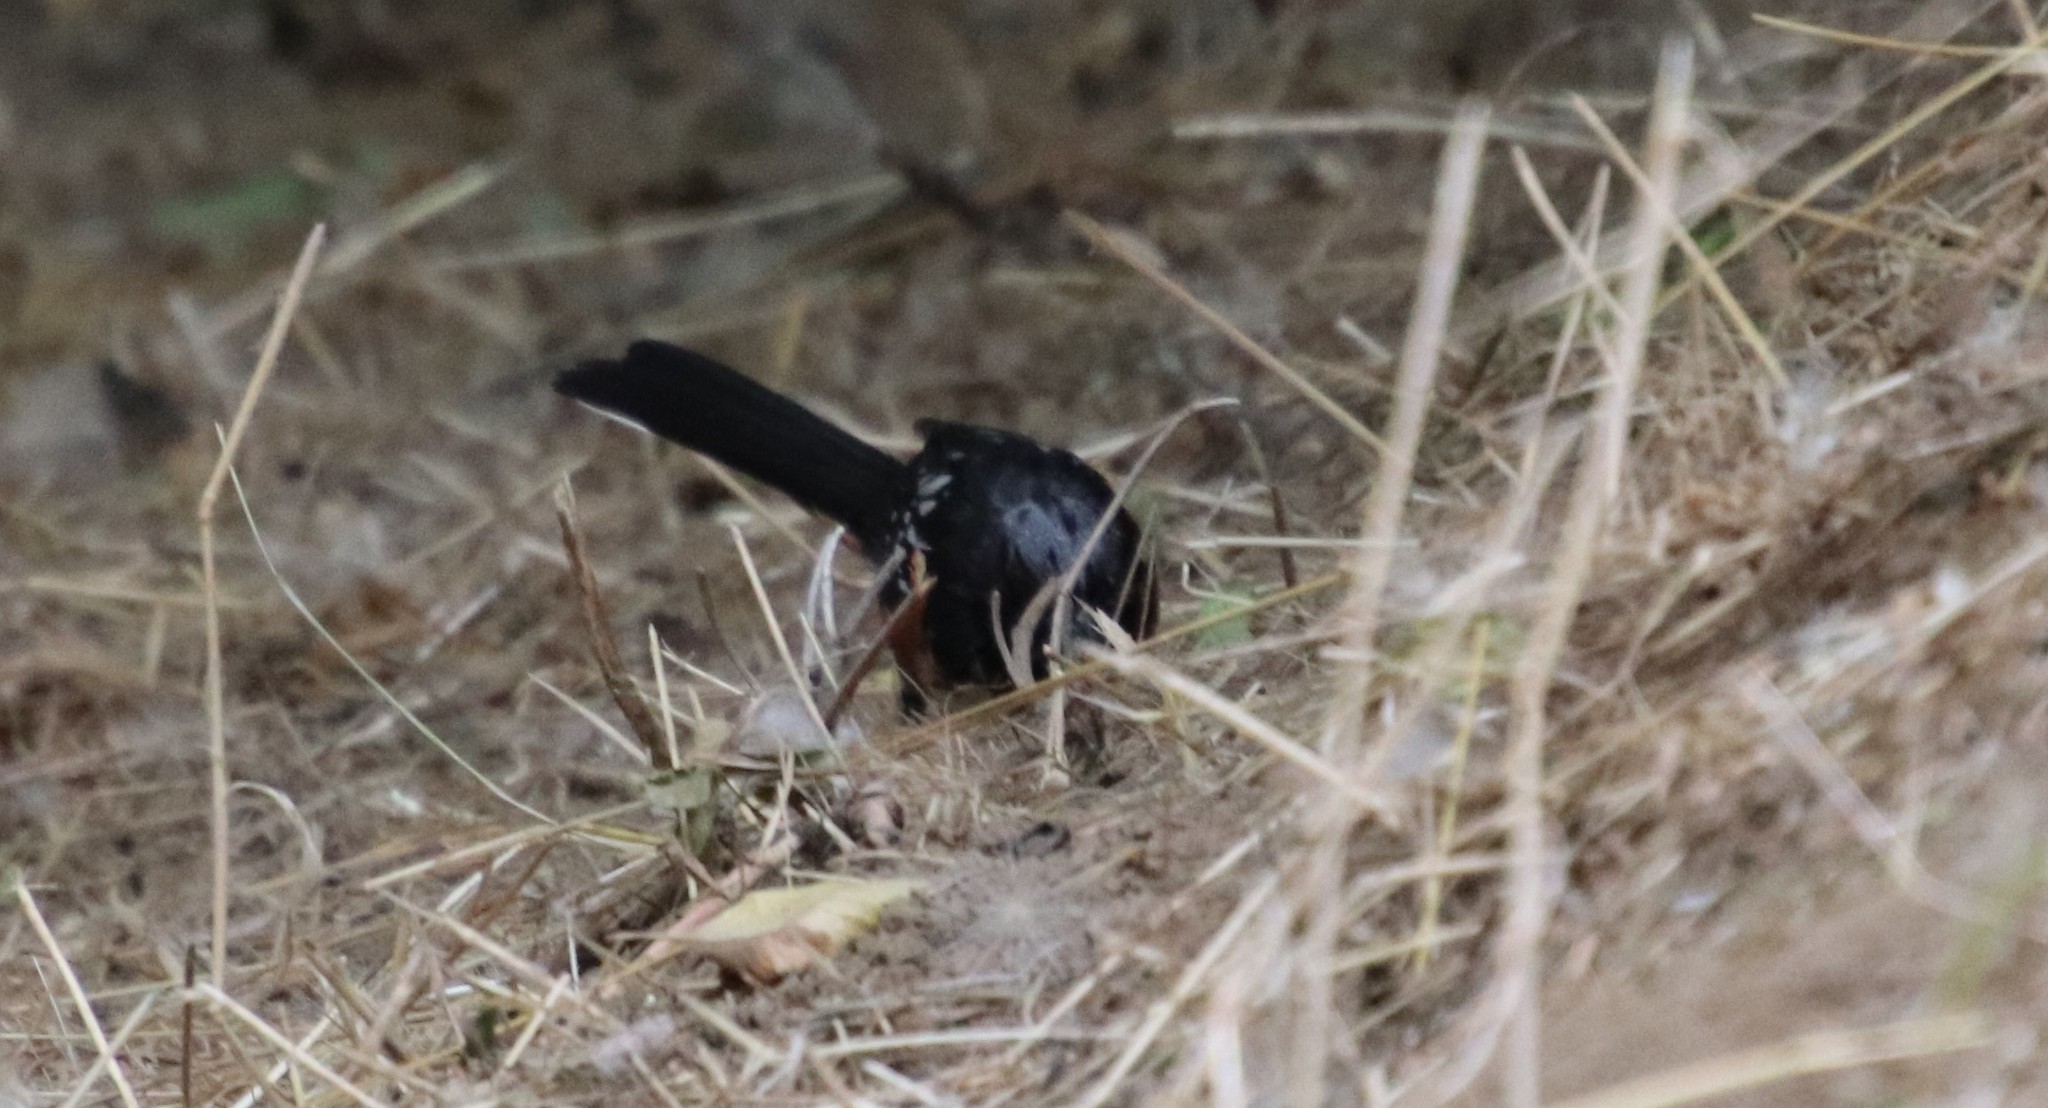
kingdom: Animalia
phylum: Chordata
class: Aves
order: Passeriformes
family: Passerellidae
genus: Pipilo
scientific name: Pipilo maculatus
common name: Spotted towhee
